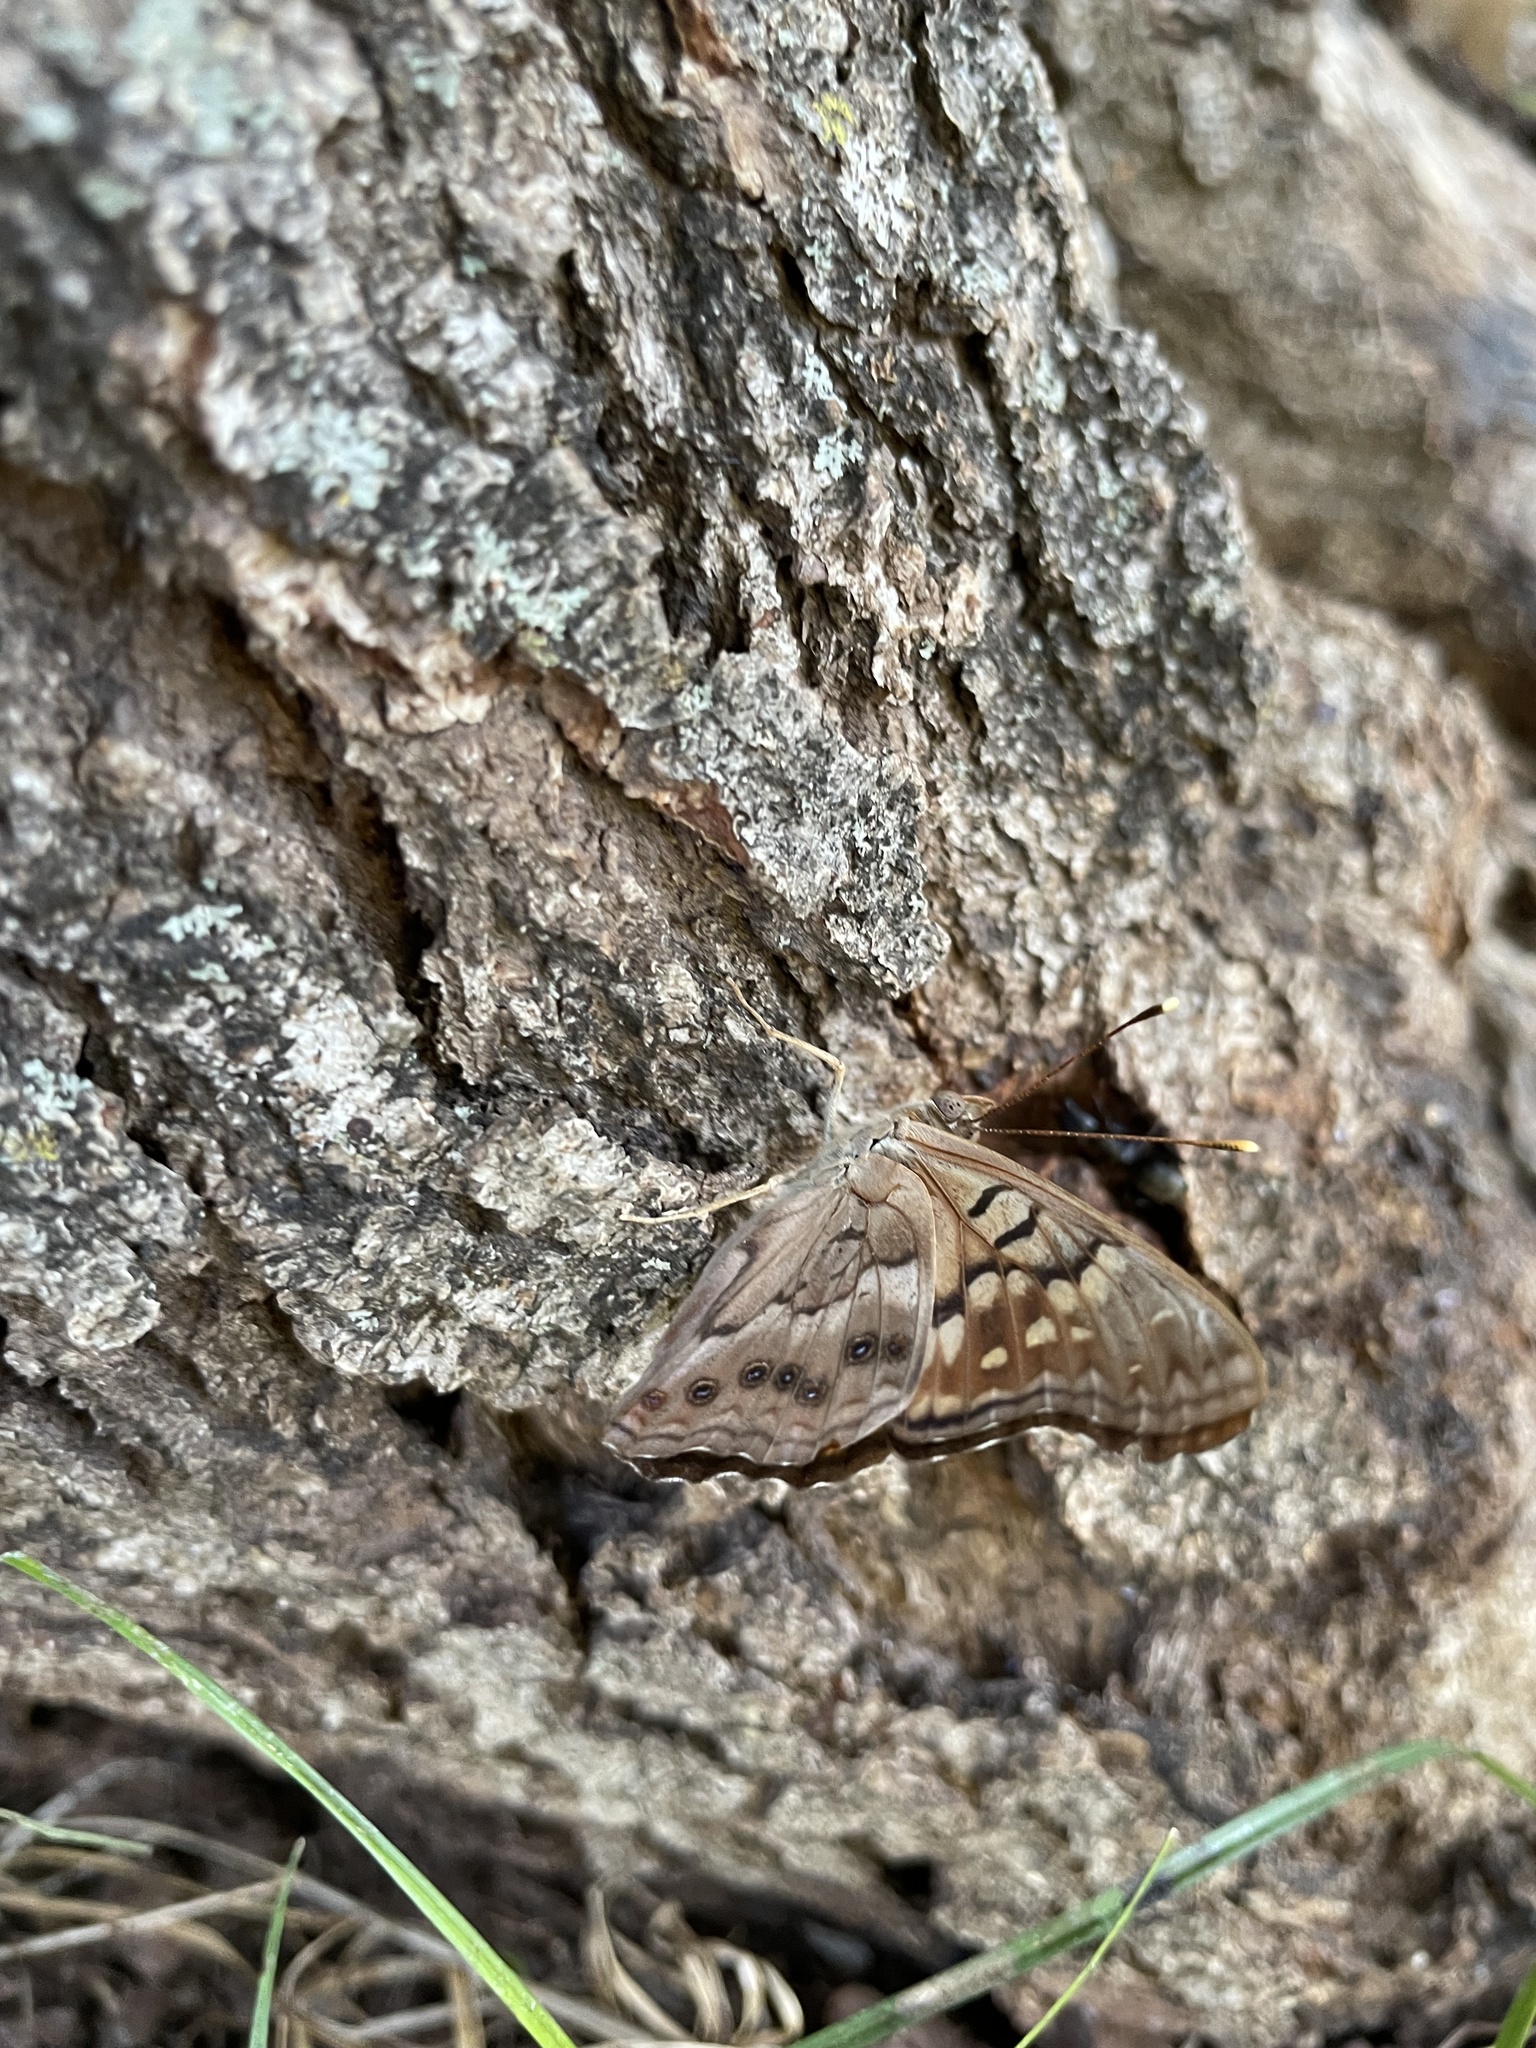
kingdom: Animalia
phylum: Arthropoda
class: Insecta
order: Lepidoptera
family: Nymphalidae
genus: Asterocampa
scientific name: Asterocampa clyton
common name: Tawny emperor
